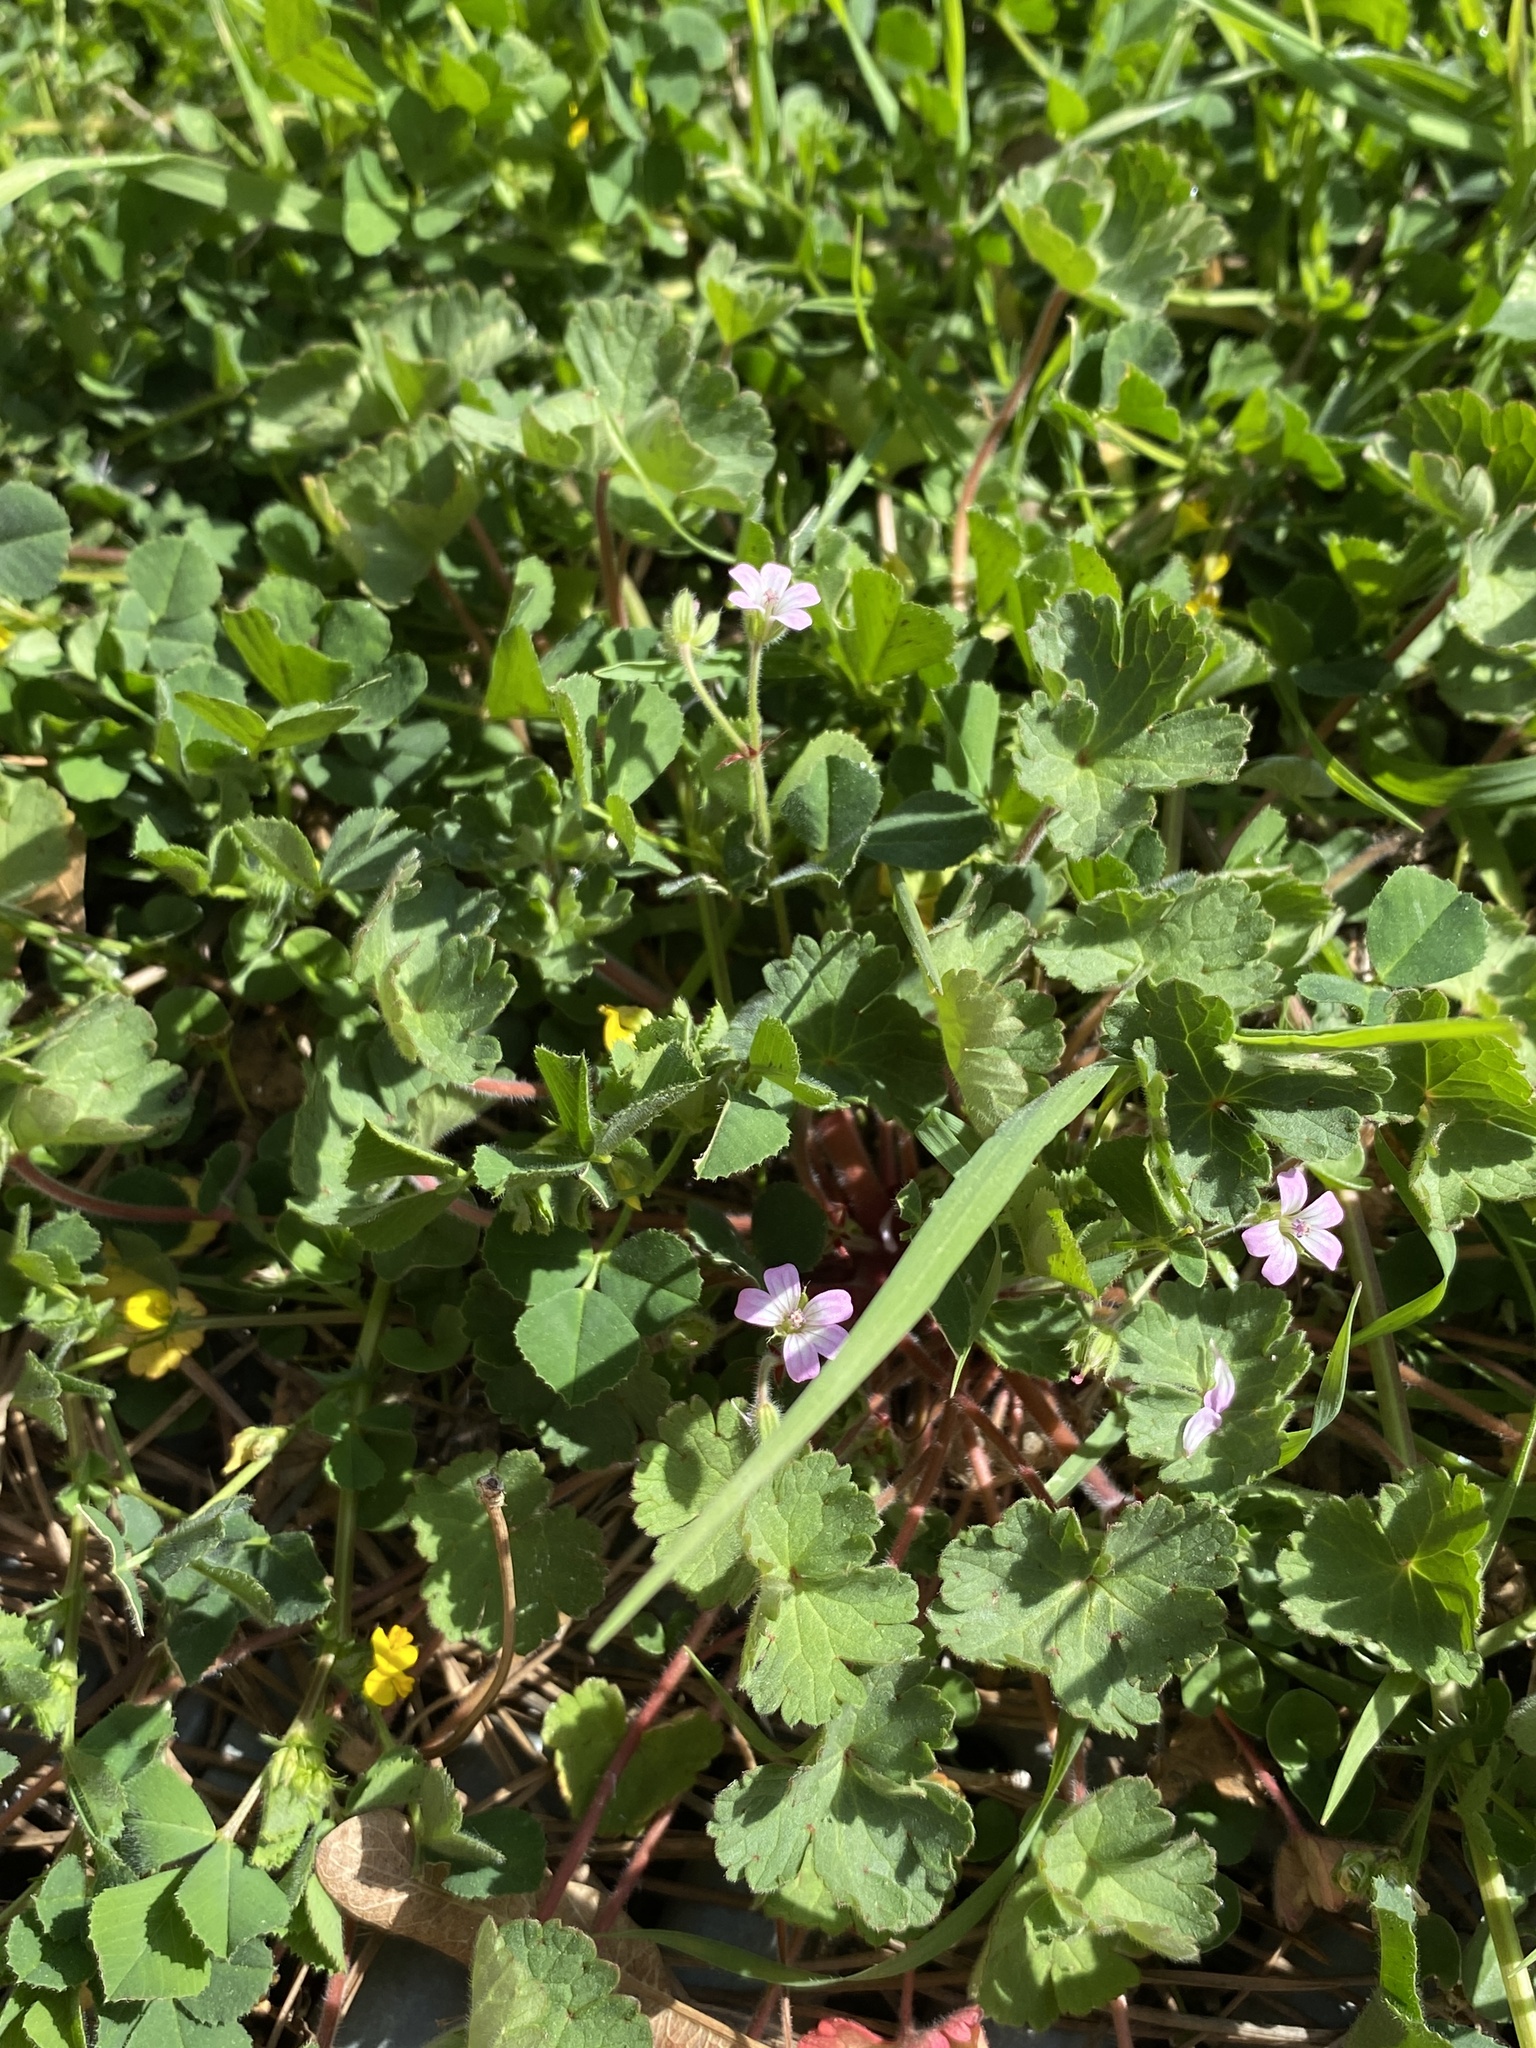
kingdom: Plantae
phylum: Tracheophyta
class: Magnoliopsida
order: Geraniales
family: Geraniaceae
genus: Geranium
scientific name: Geranium rotundifolium
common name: Round-leaved crane's-bill
